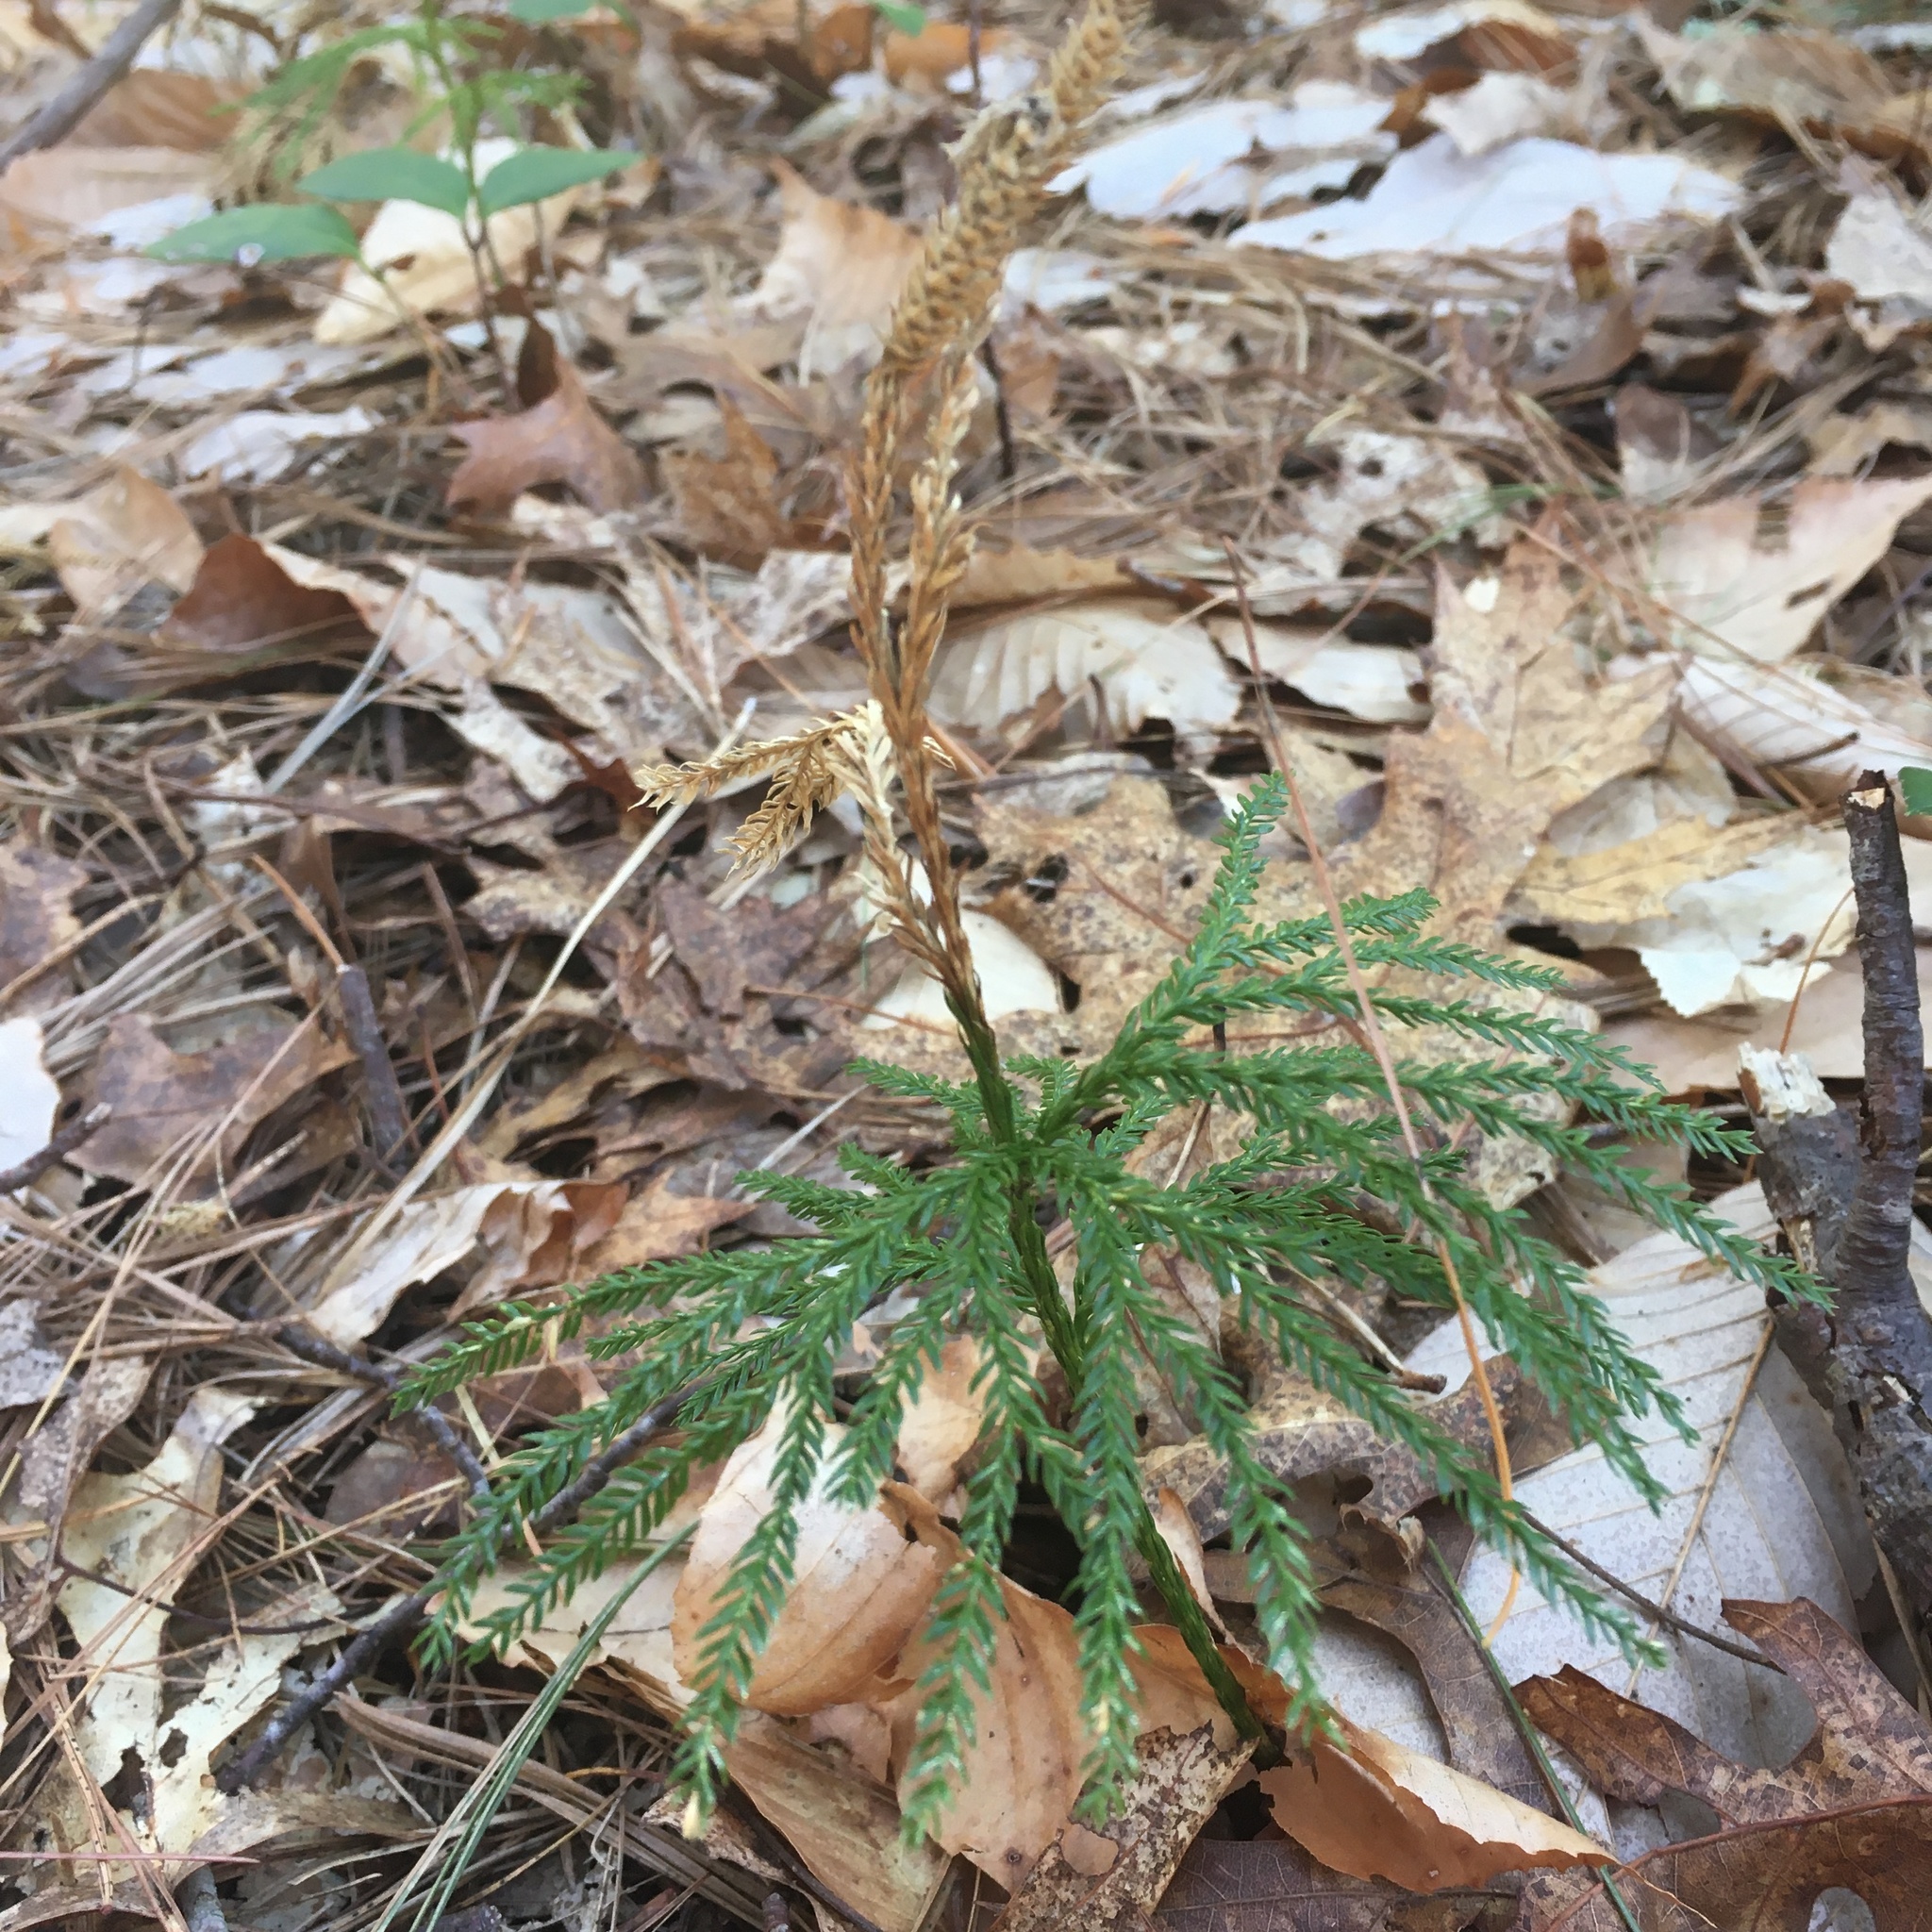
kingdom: Plantae
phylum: Tracheophyta
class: Lycopodiopsida
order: Lycopodiales
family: Lycopodiaceae
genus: Dendrolycopodium
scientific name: Dendrolycopodium obscurum
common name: Common ground-pine
